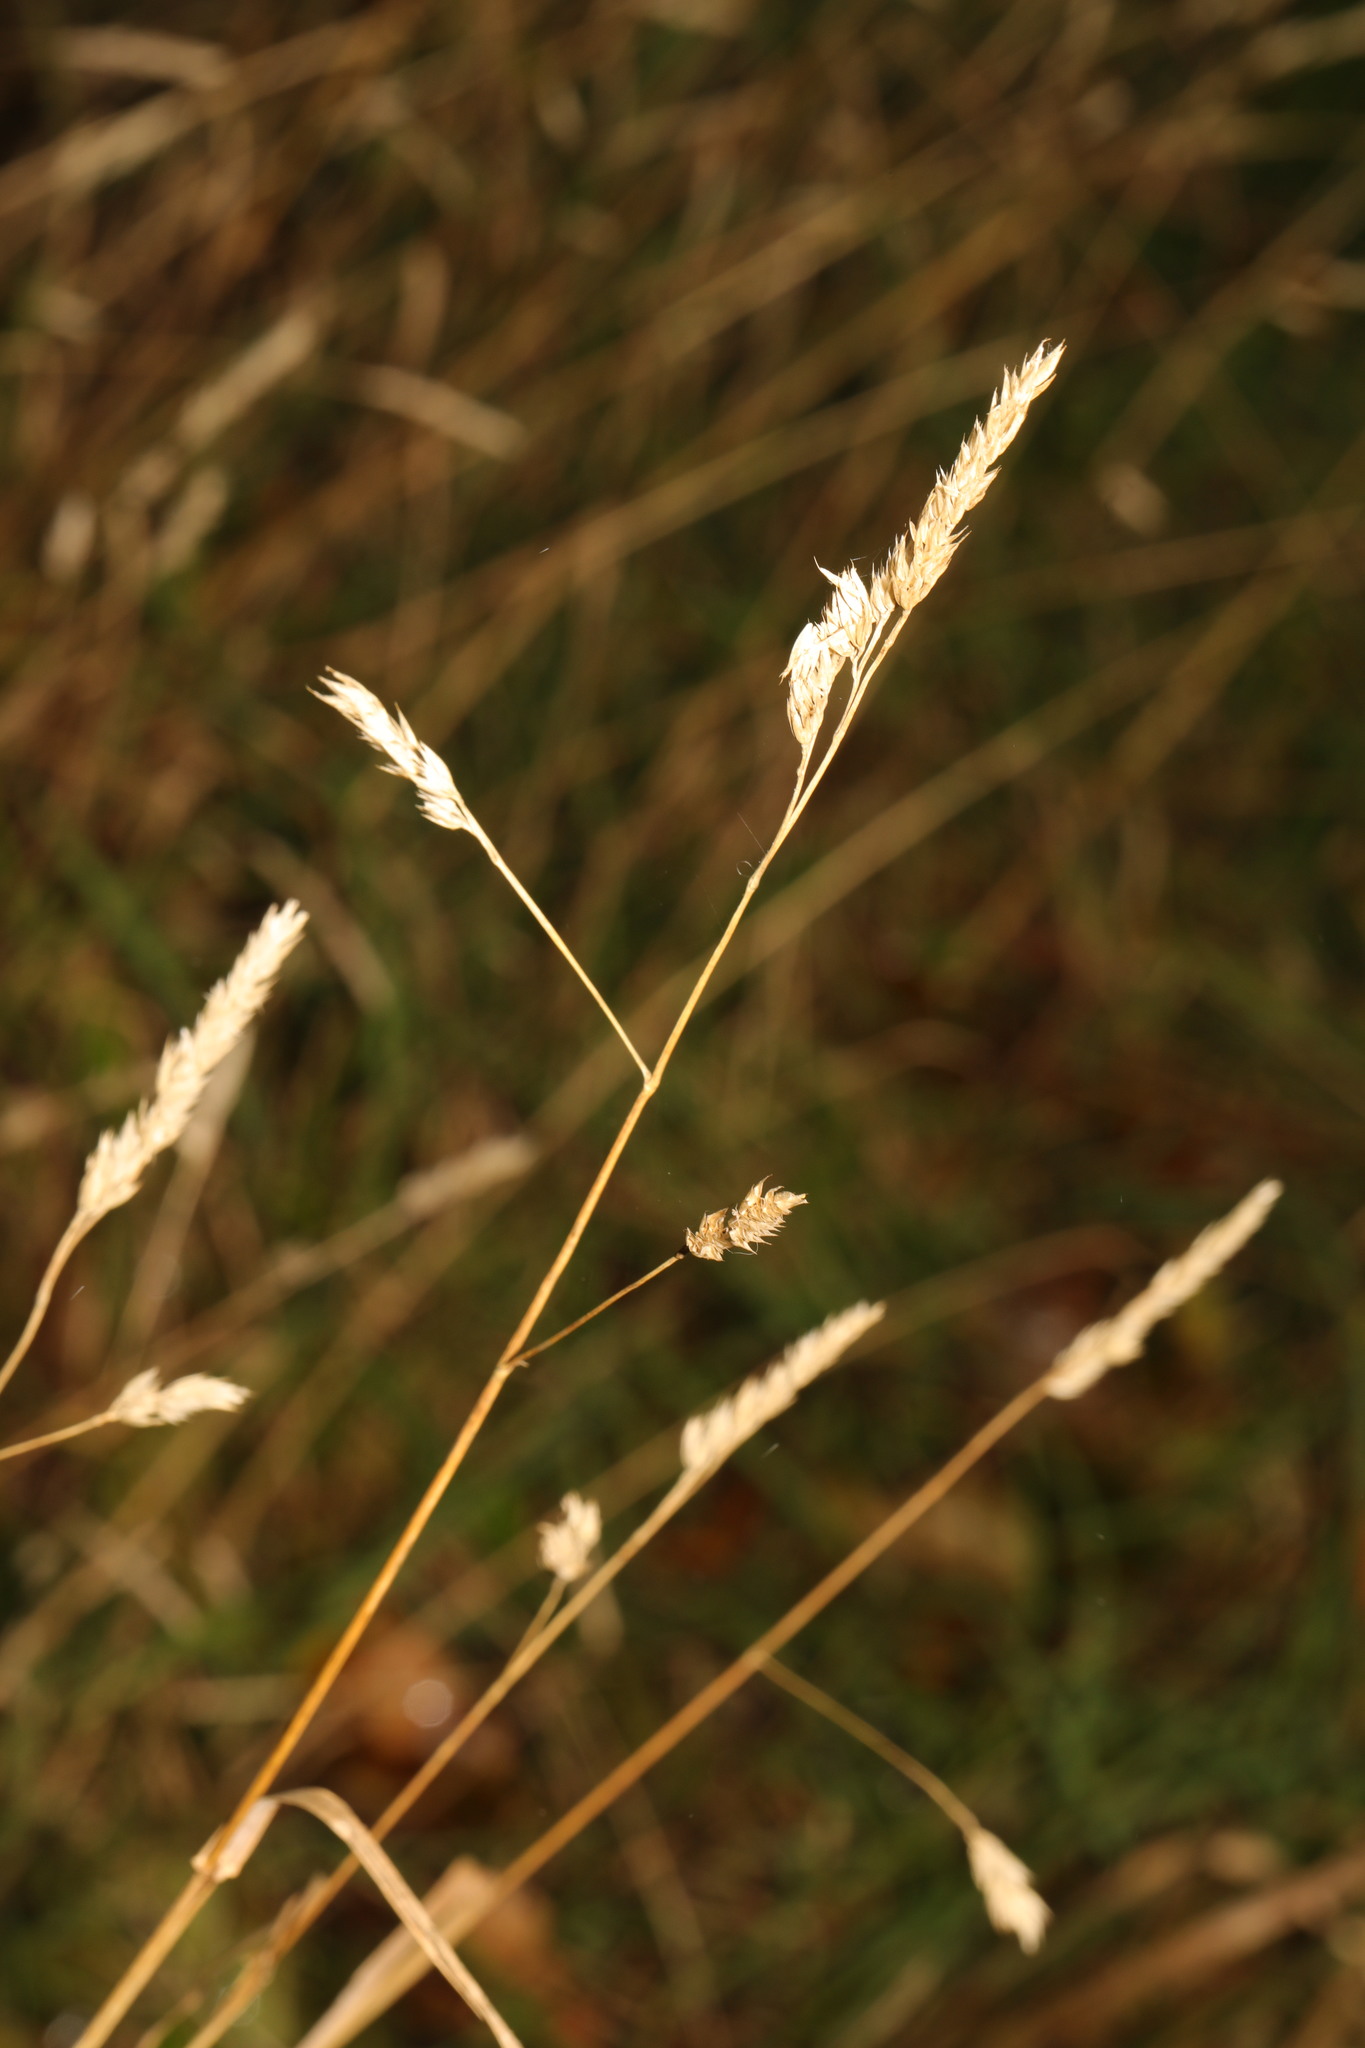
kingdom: Plantae
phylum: Tracheophyta
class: Liliopsida
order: Poales
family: Poaceae
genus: Dactylis
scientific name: Dactylis glomerata
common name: Orchardgrass
